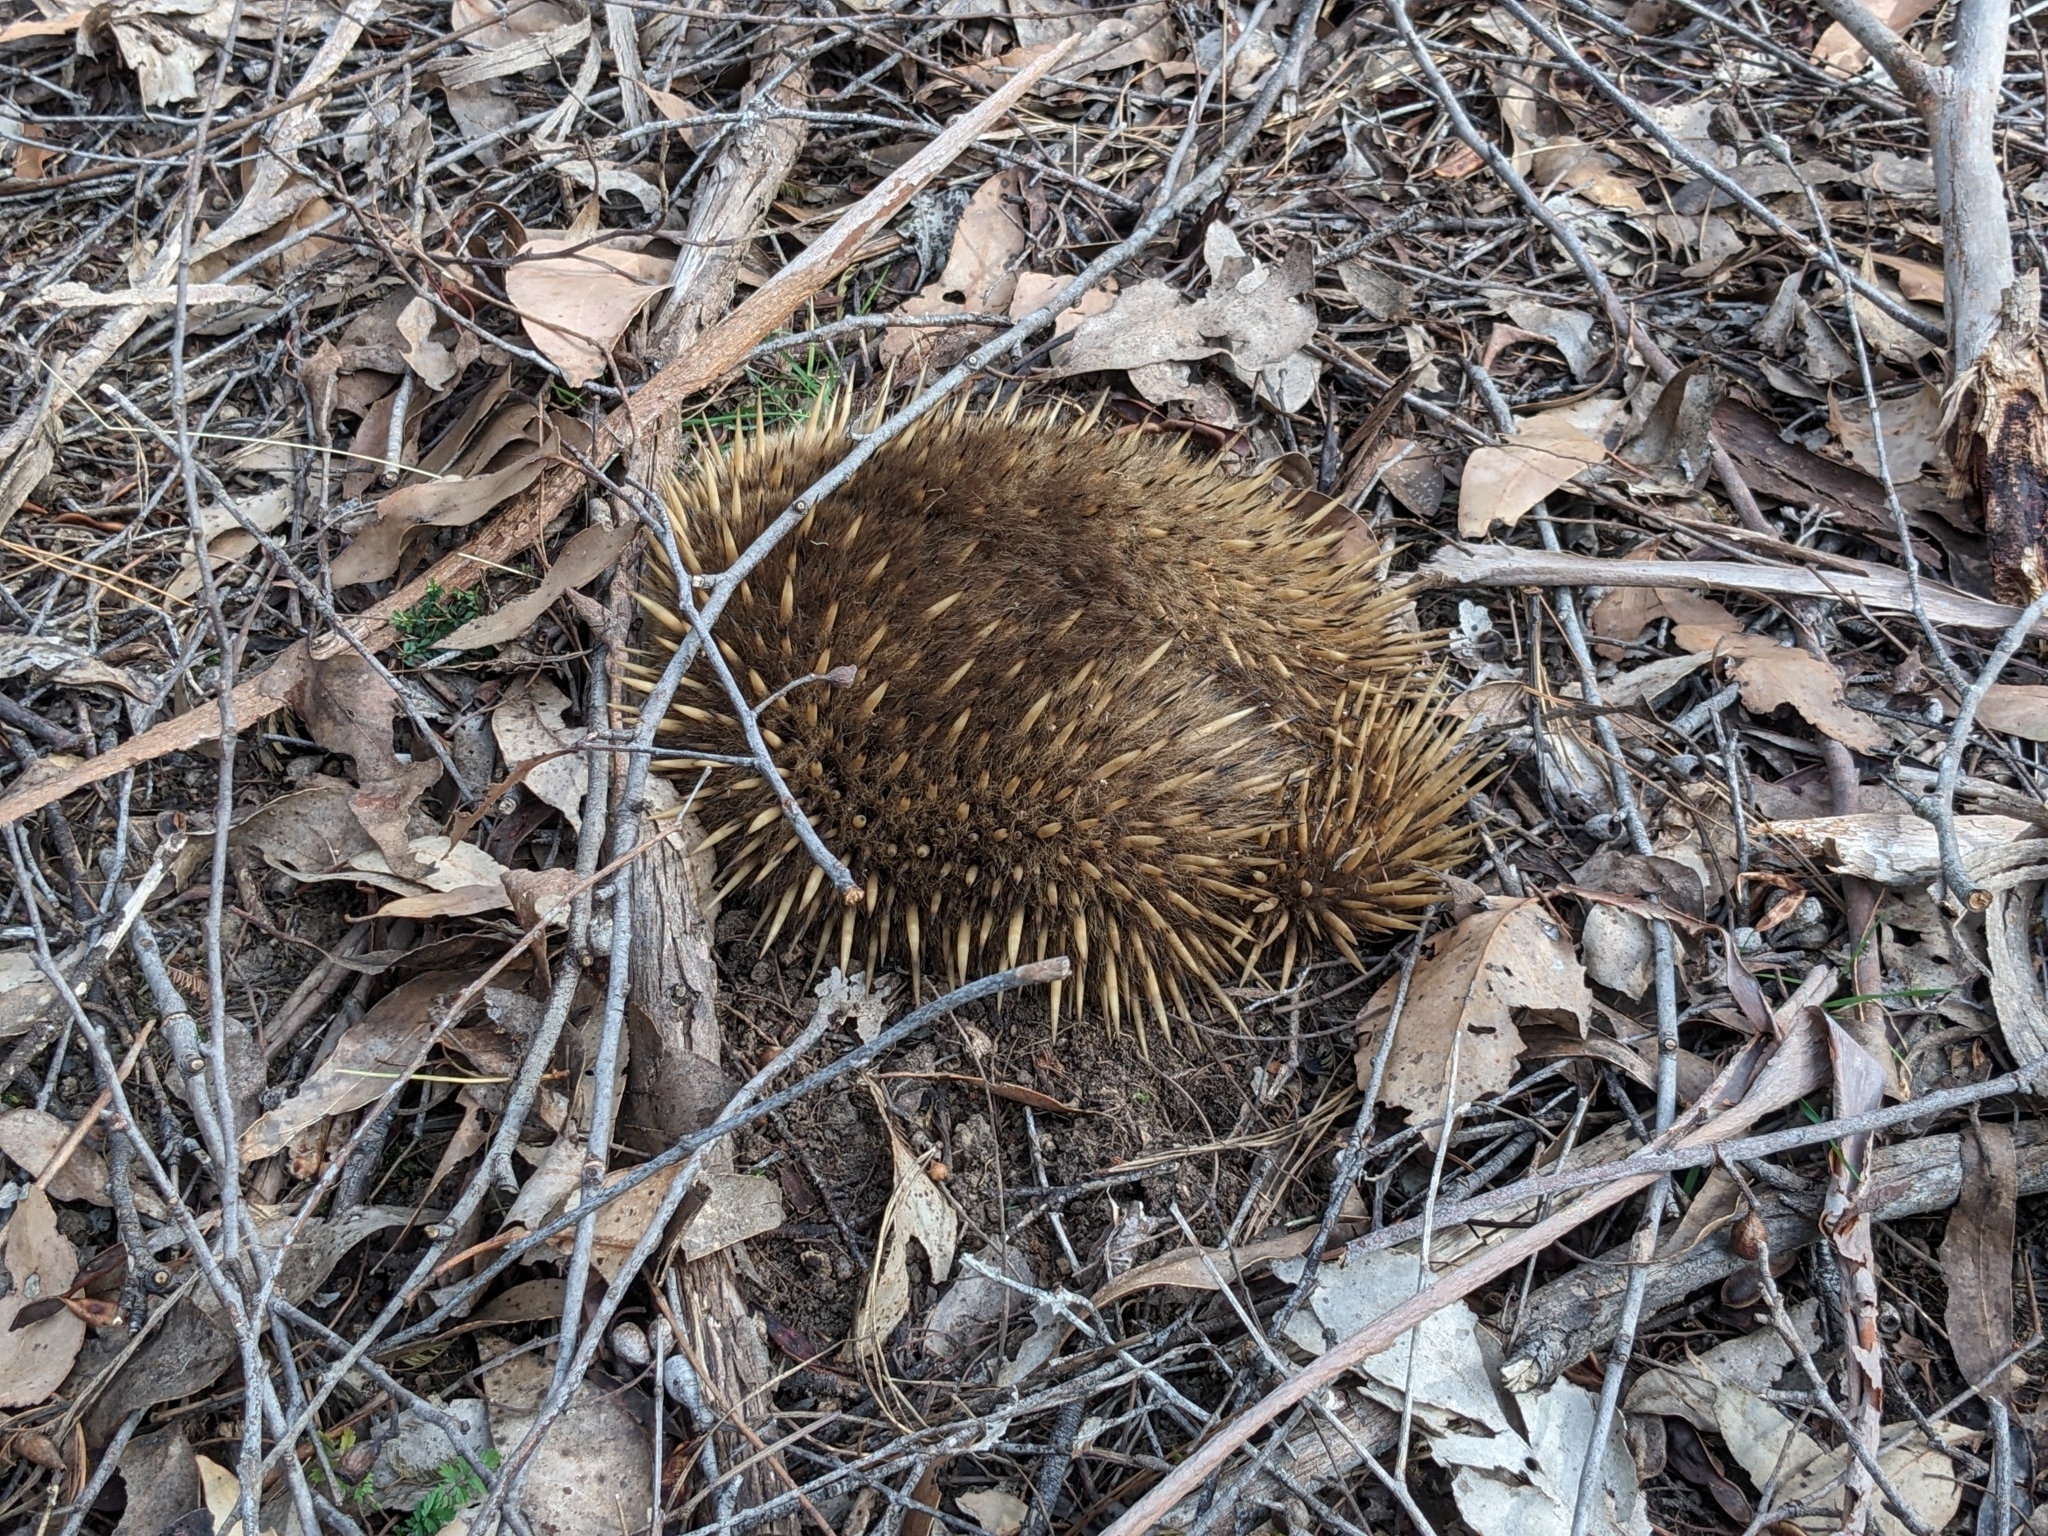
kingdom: Animalia
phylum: Chordata
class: Mammalia
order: Monotremata
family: Tachyglossidae
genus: Tachyglossus
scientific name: Tachyglossus aculeatus
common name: Short-beaked echidna
